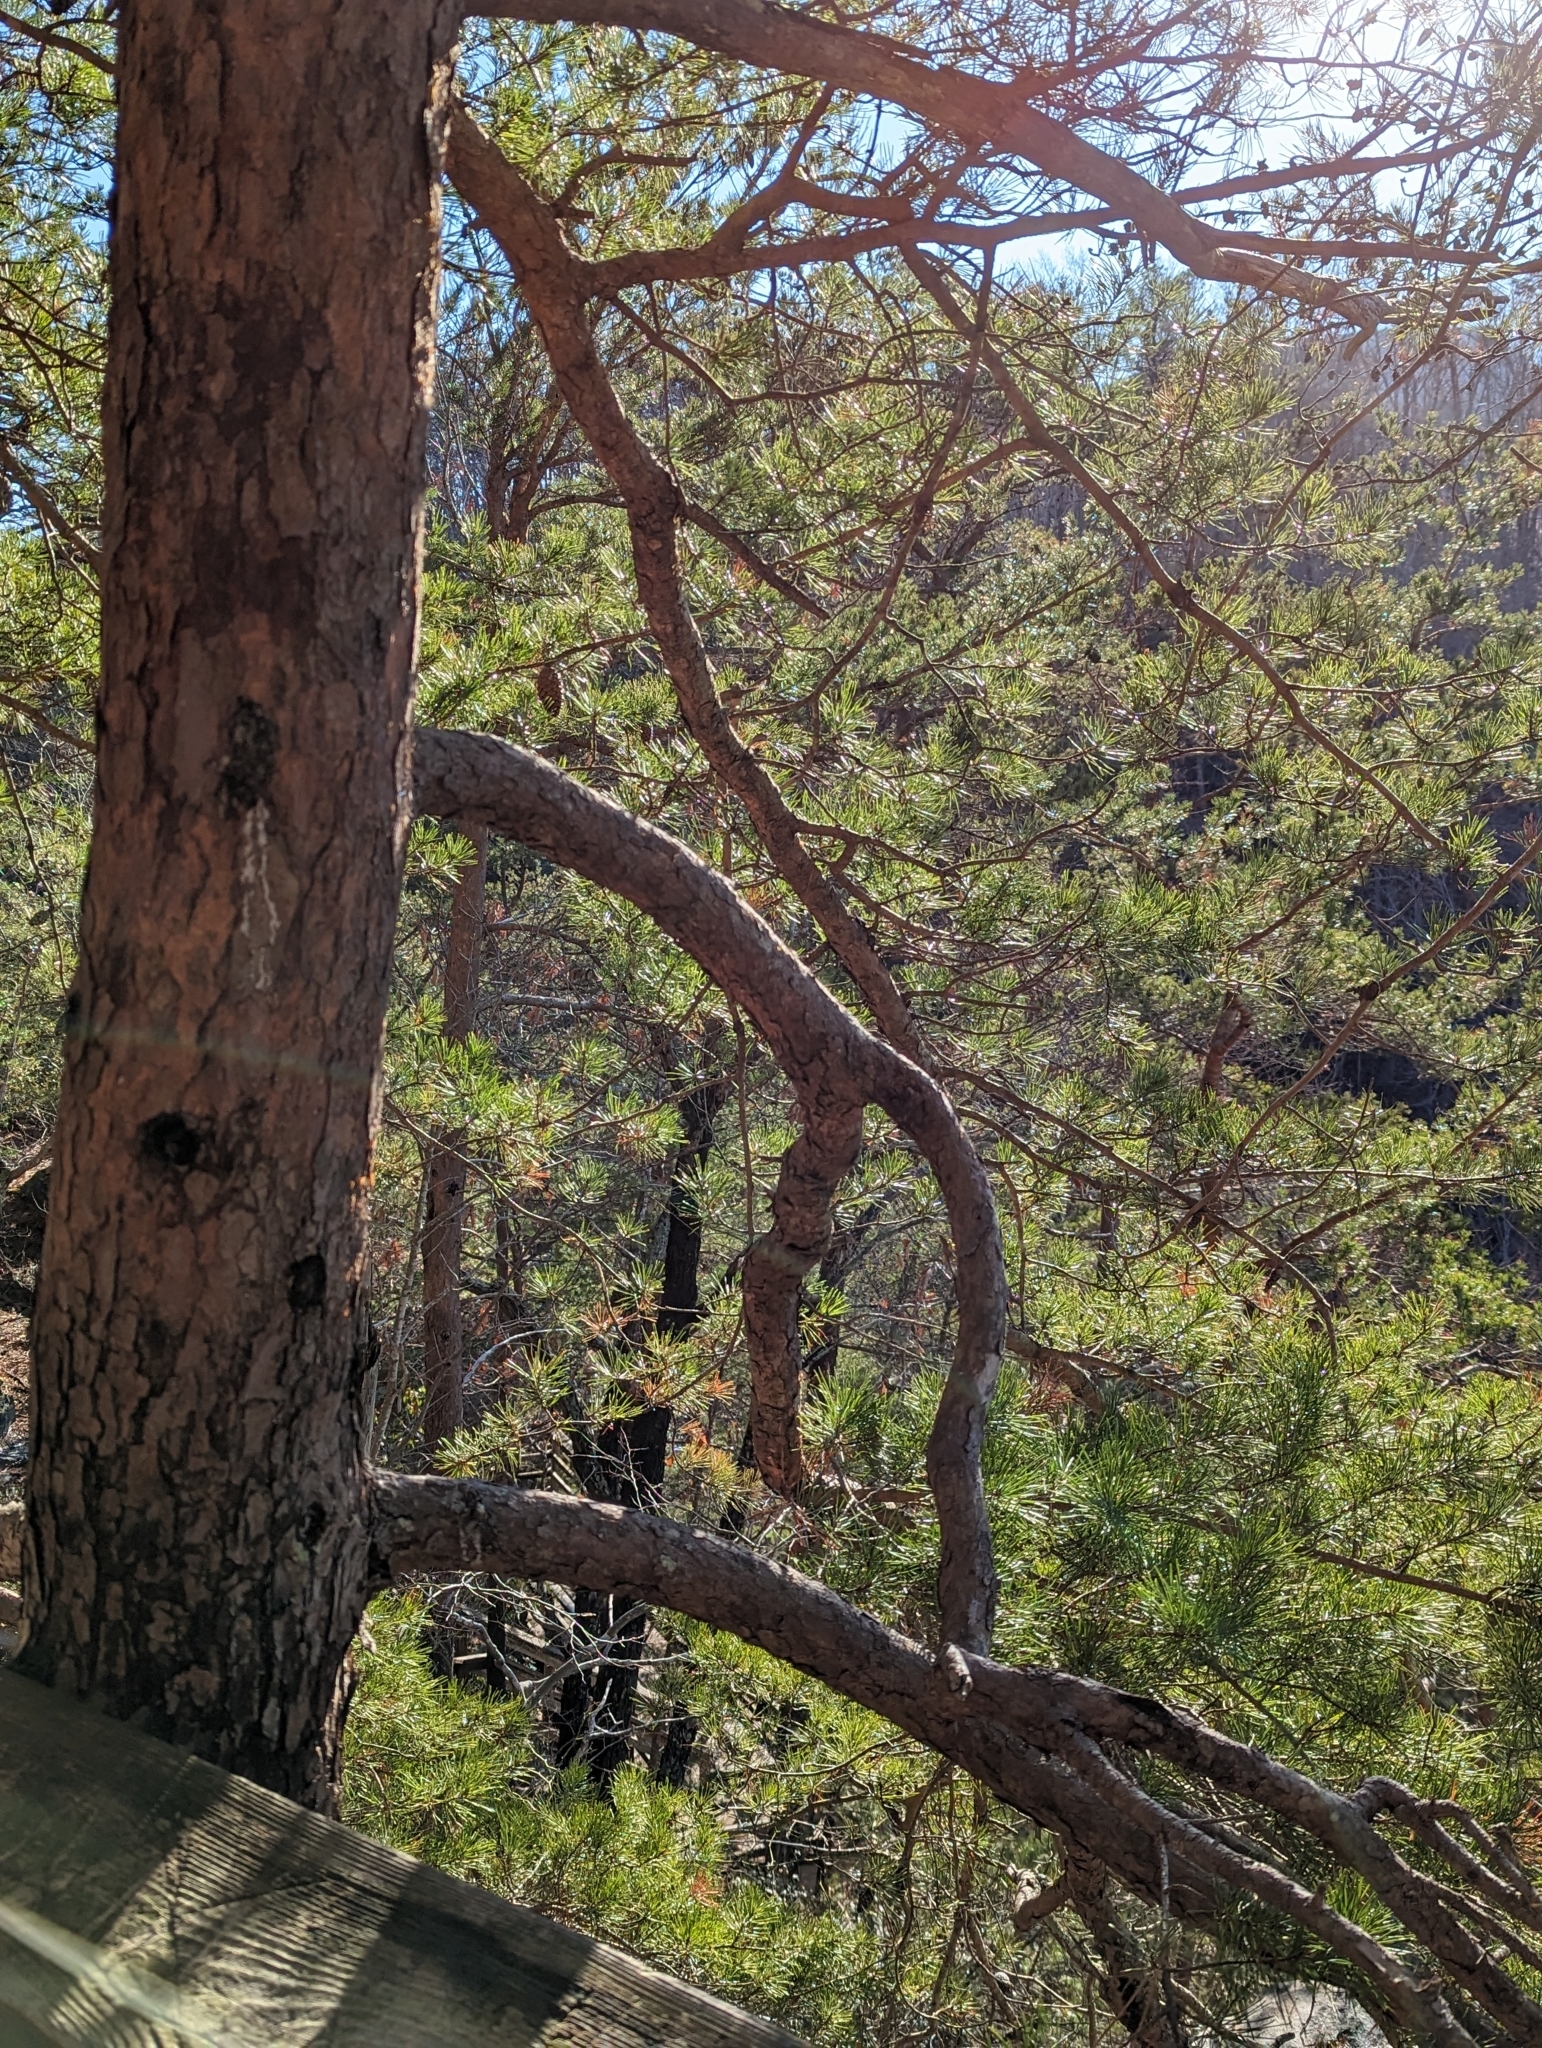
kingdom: Plantae
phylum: Tracheophyta
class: Pinopsida
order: Pinales
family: Pinaceae
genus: Pinus
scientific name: Pinus virginiana
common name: Scrub pine
